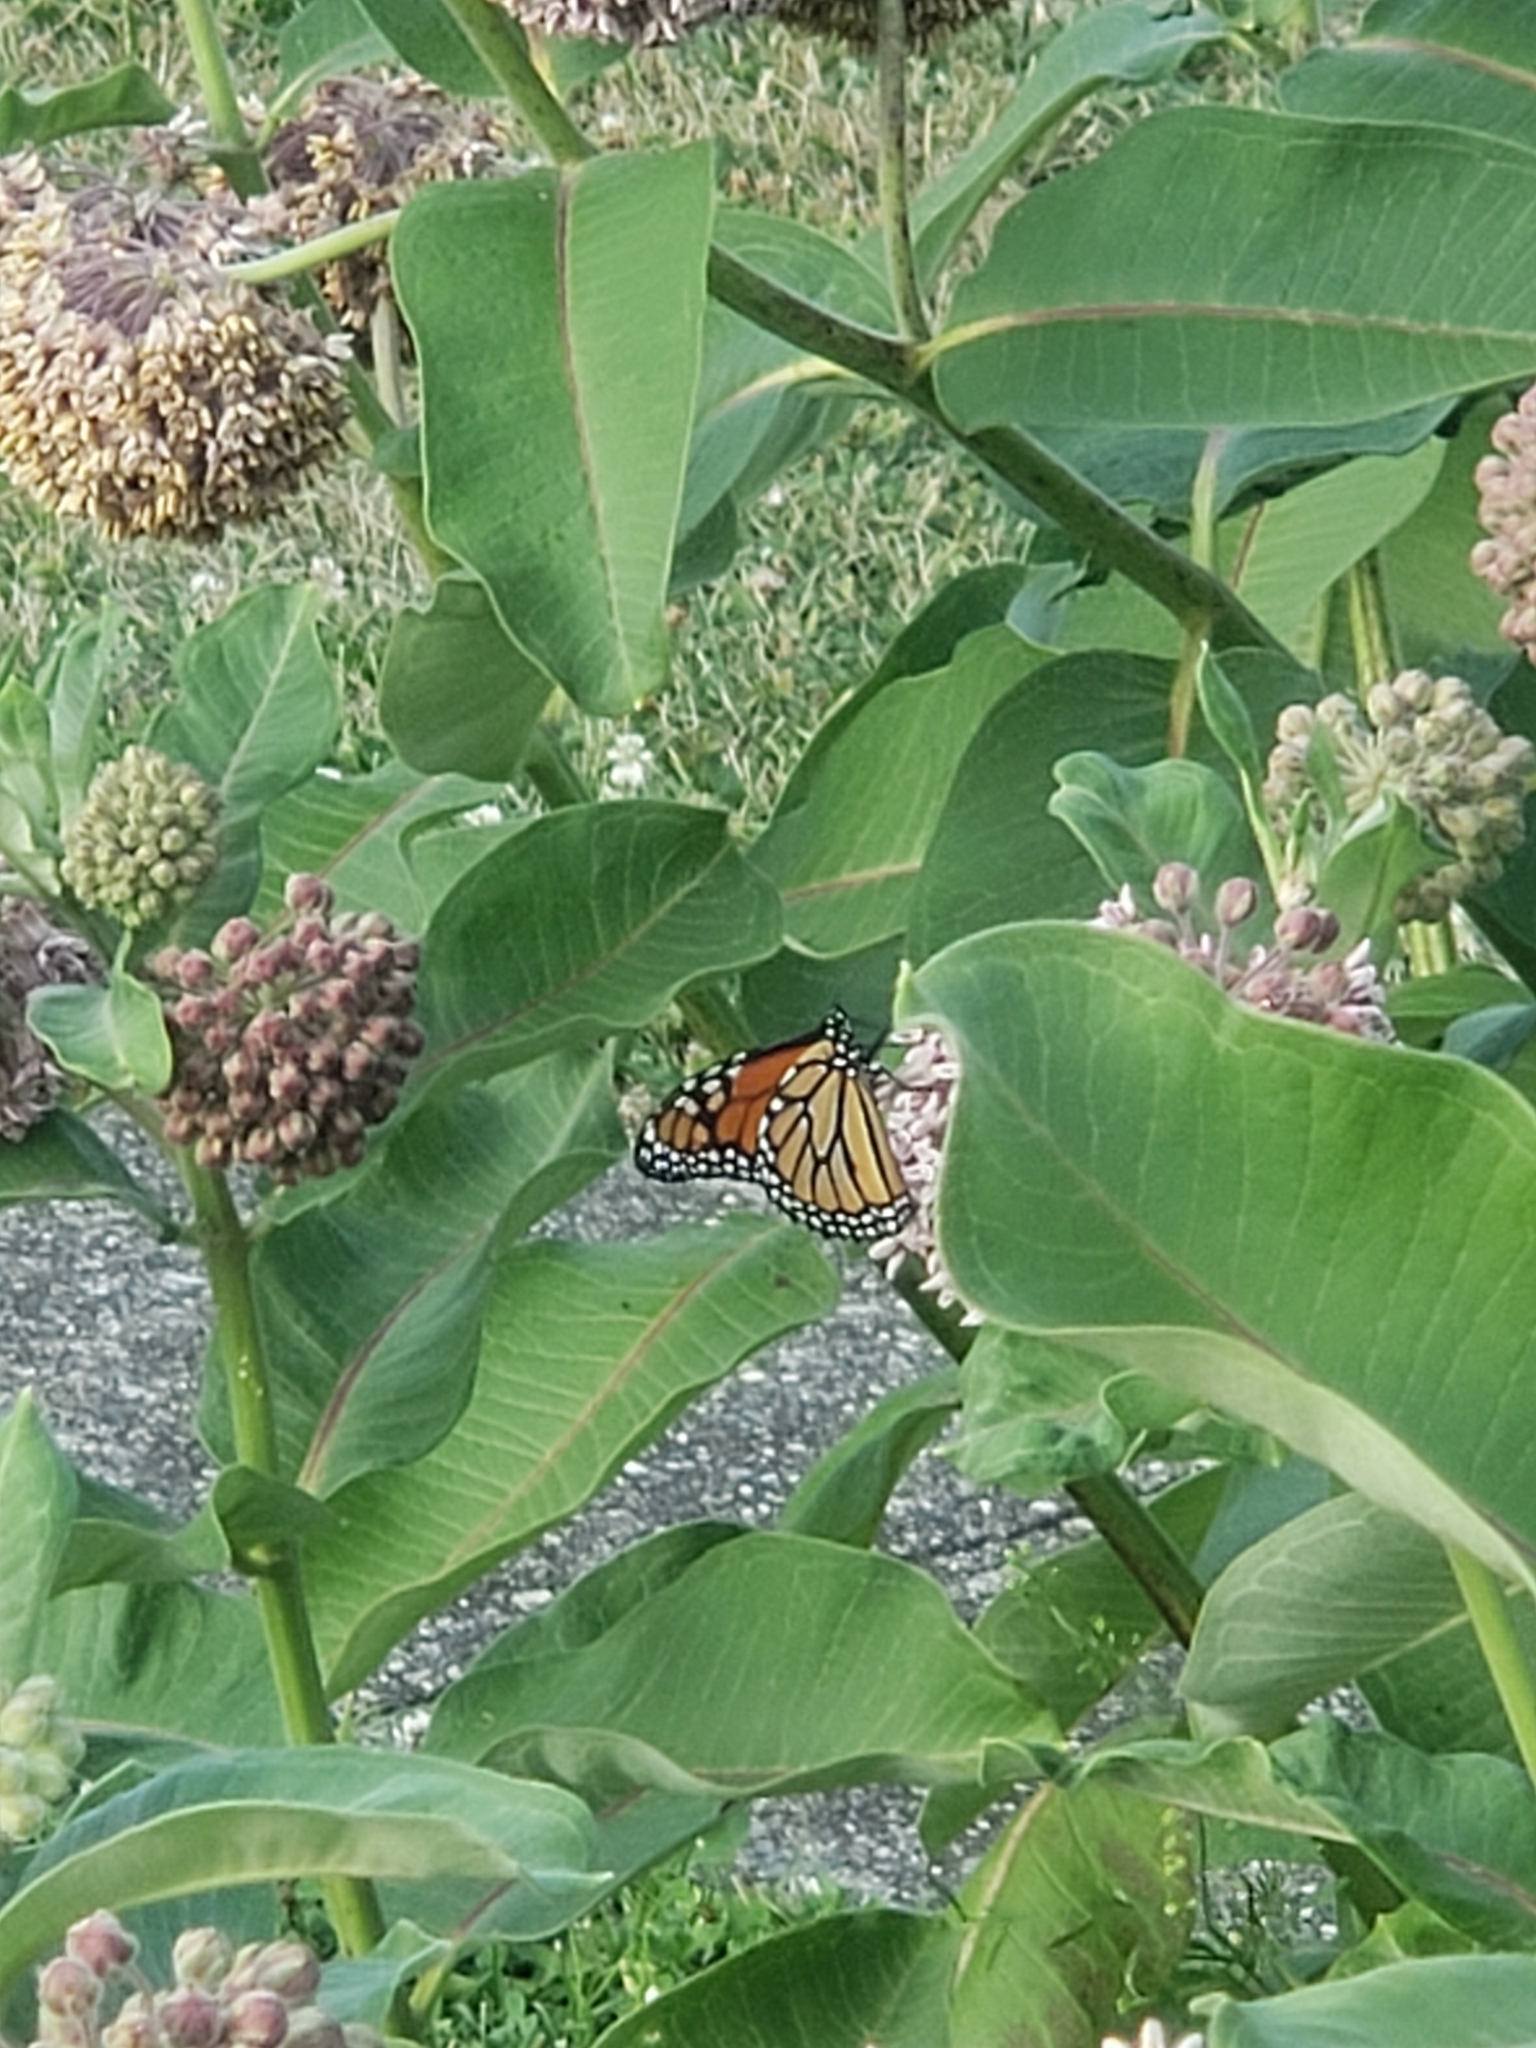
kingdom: Animalia
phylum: Arthropoda
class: Insecta
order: Lepidoptera
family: Nymphalidae
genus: Danaus
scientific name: Danaus plexippus
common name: Monarch
